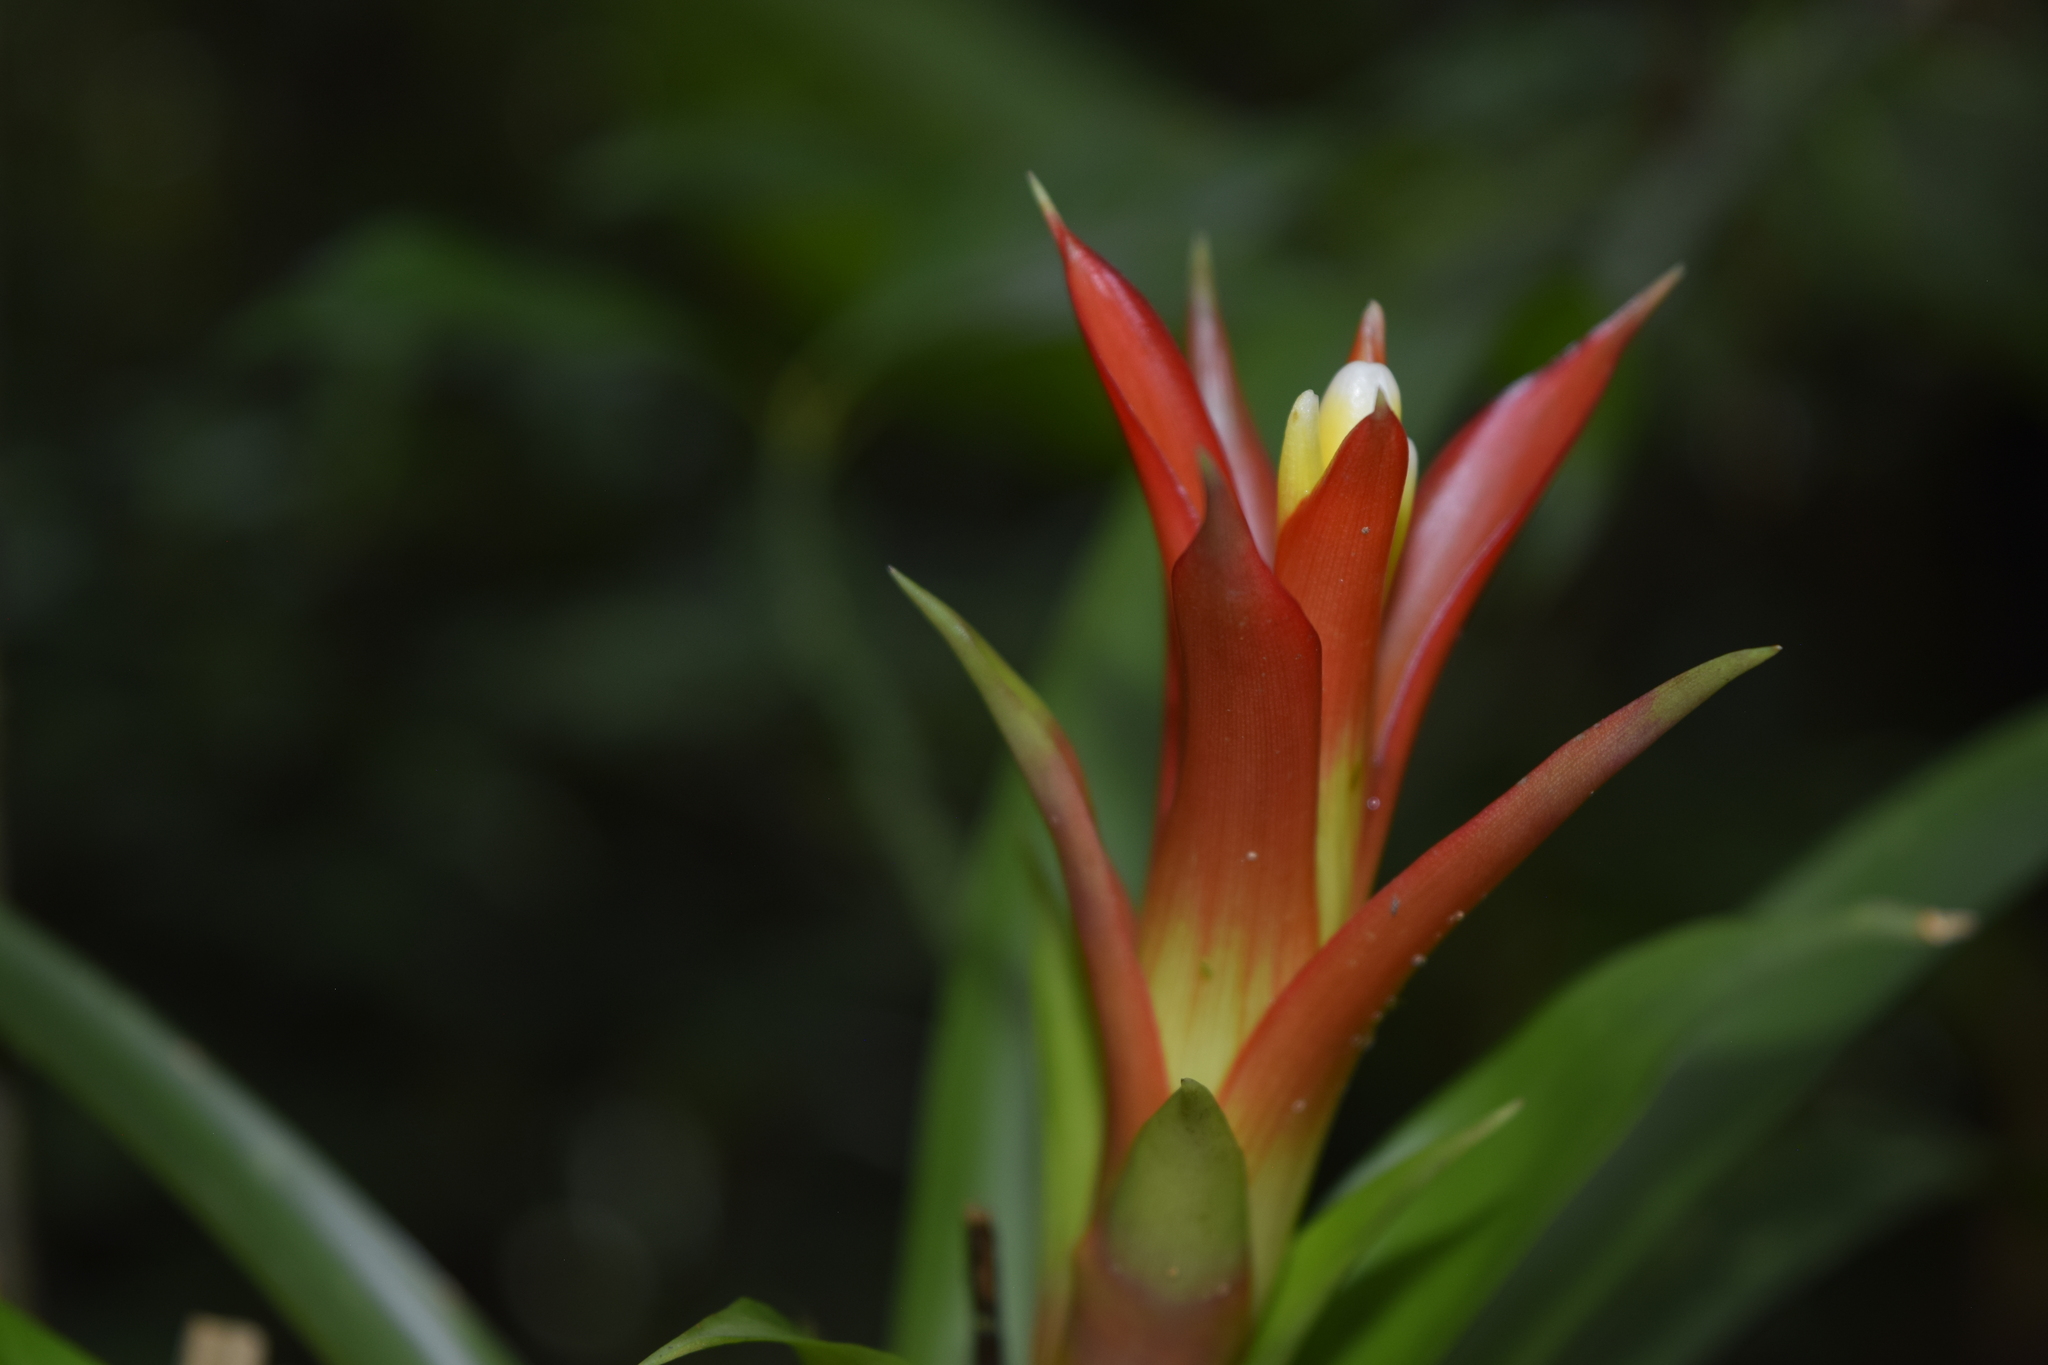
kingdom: Plantae
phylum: Tracheophyta
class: Liliopsida
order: Poales
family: Bromeliaceae
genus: Guzmania
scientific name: Guzmania lingulata
